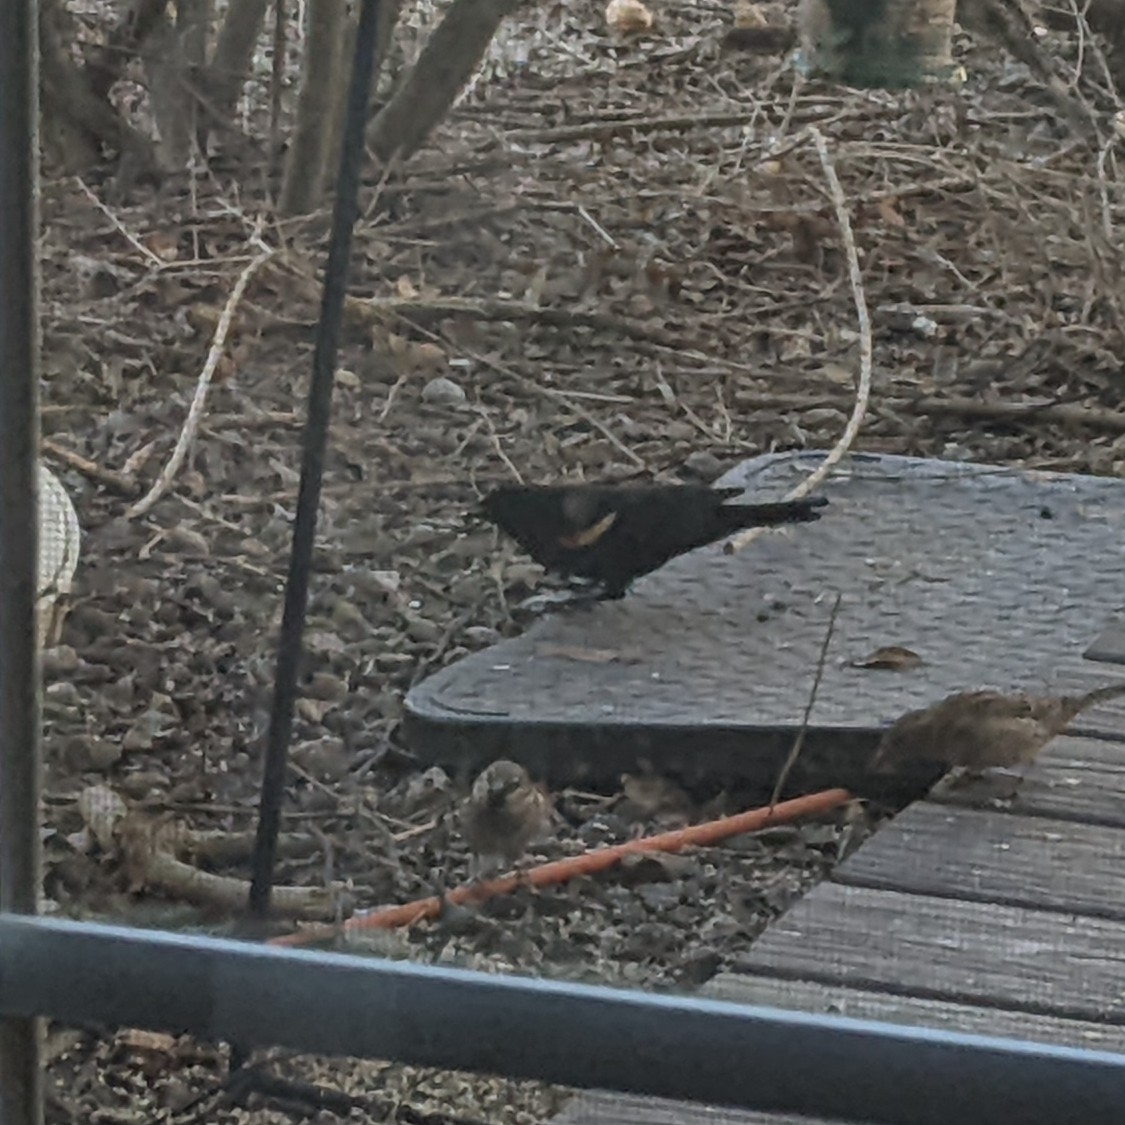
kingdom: Animalia
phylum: Chordata
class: Aves
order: Passeriformes
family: Icteridae
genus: Agelaius
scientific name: Agelaius phoeniceus
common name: Red-winged blackbird
